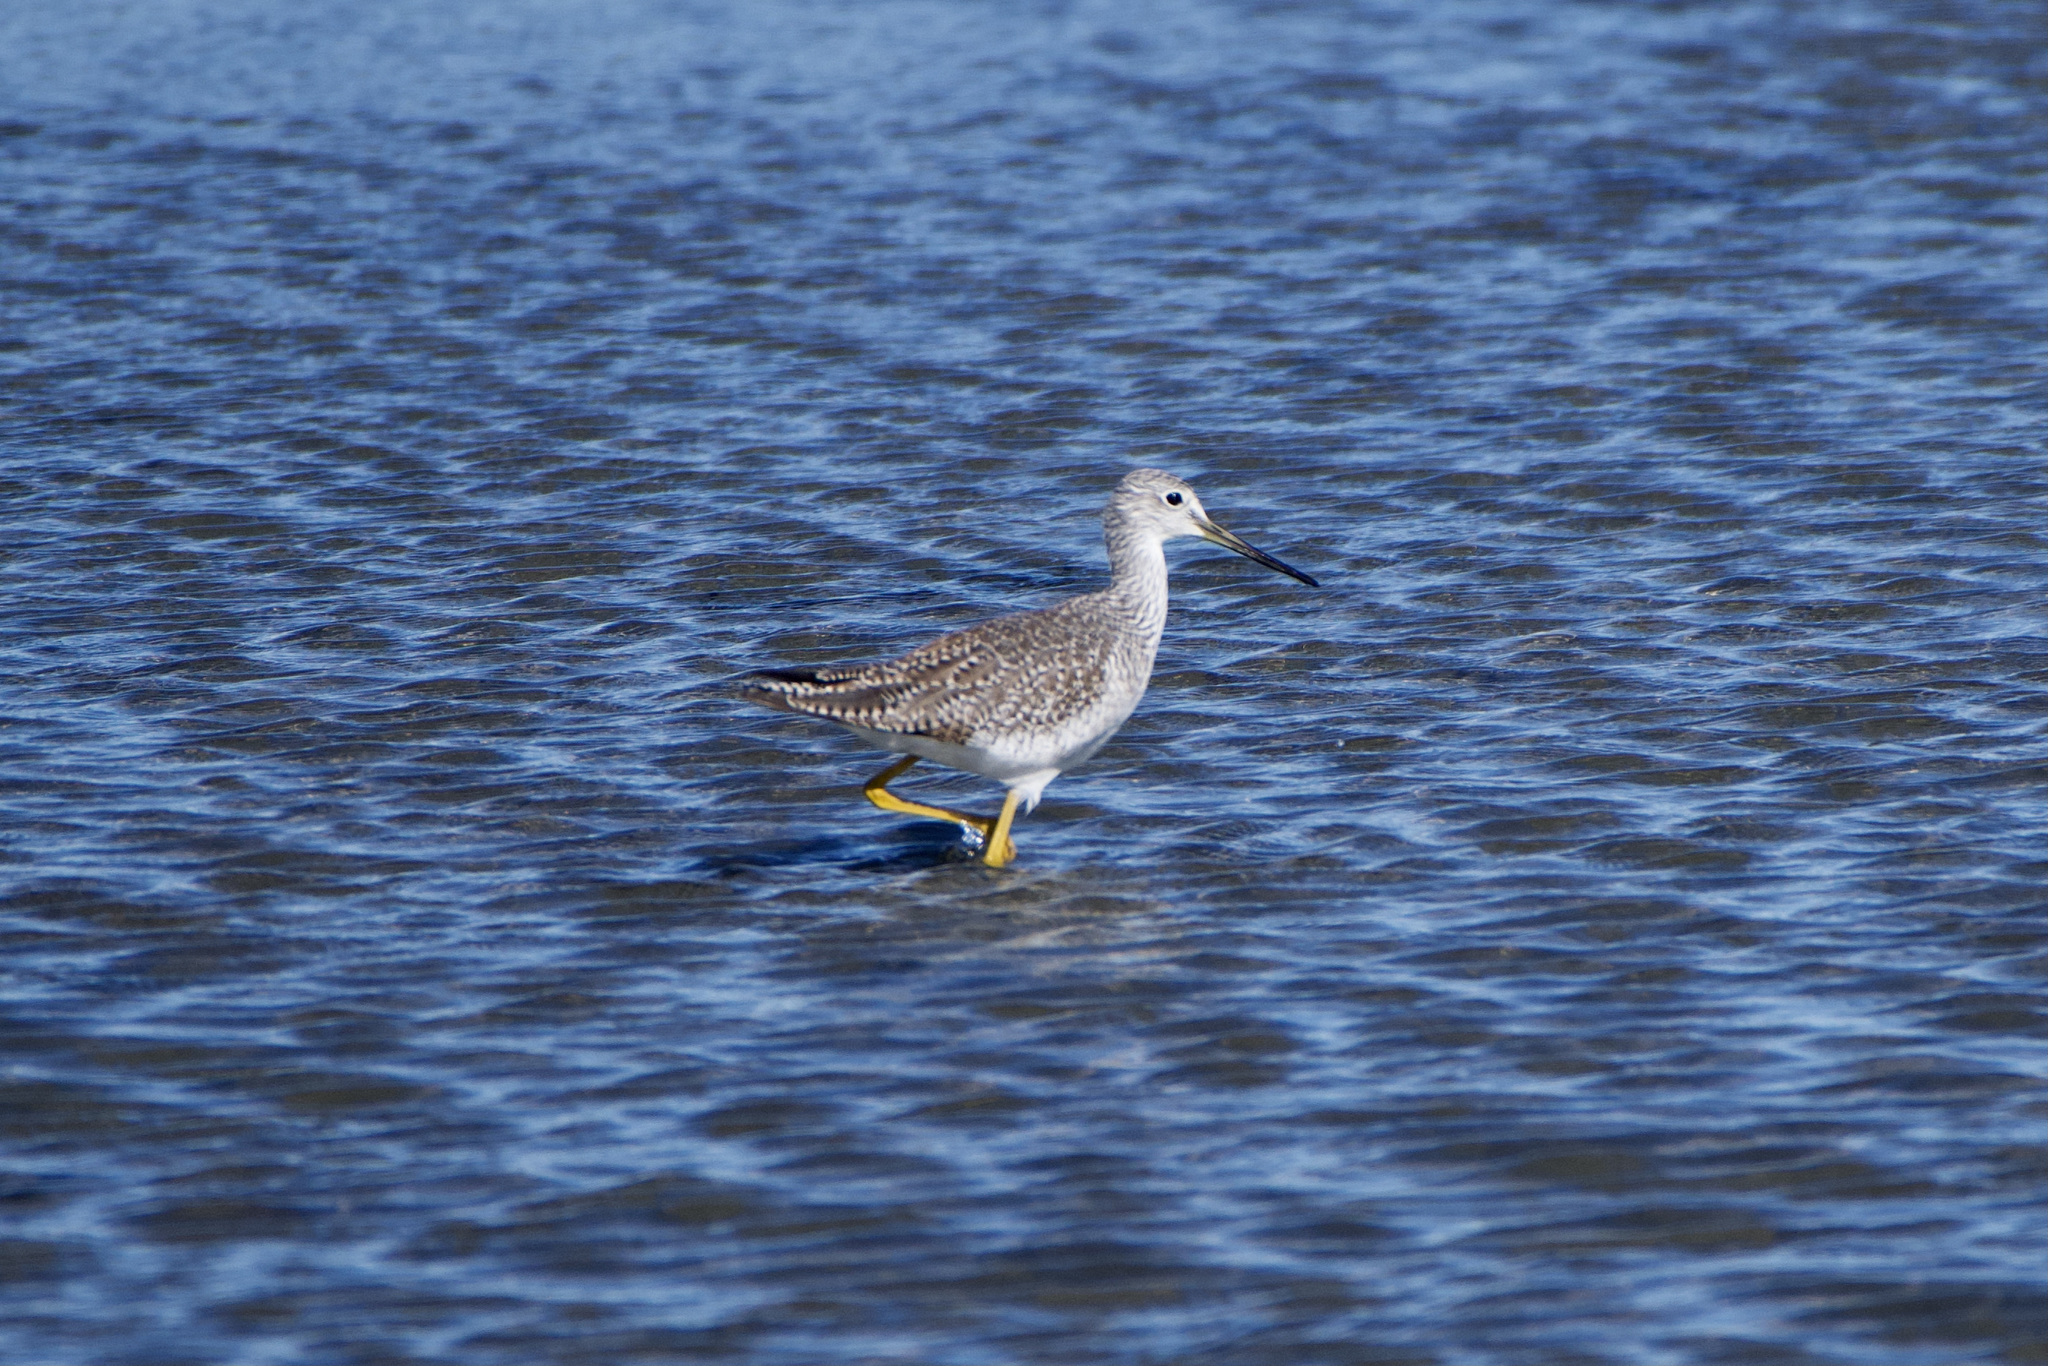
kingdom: Animalia
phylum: Chordata
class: Aves
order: Charadriiformes
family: Scolopacidae
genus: Tringa
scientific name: Tringa melanoleuca
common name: Greater yellowlegs
